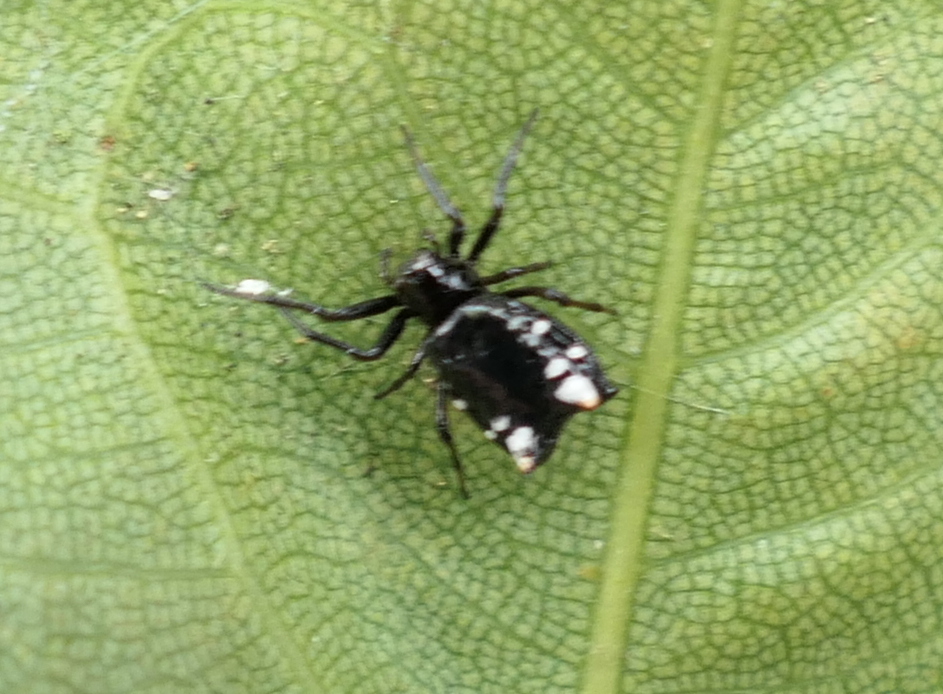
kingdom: Animalia
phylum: Arthropoda
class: Arachnida
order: Araneae
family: Araneidae
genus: Micrathena
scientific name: Micrathena patruelis
